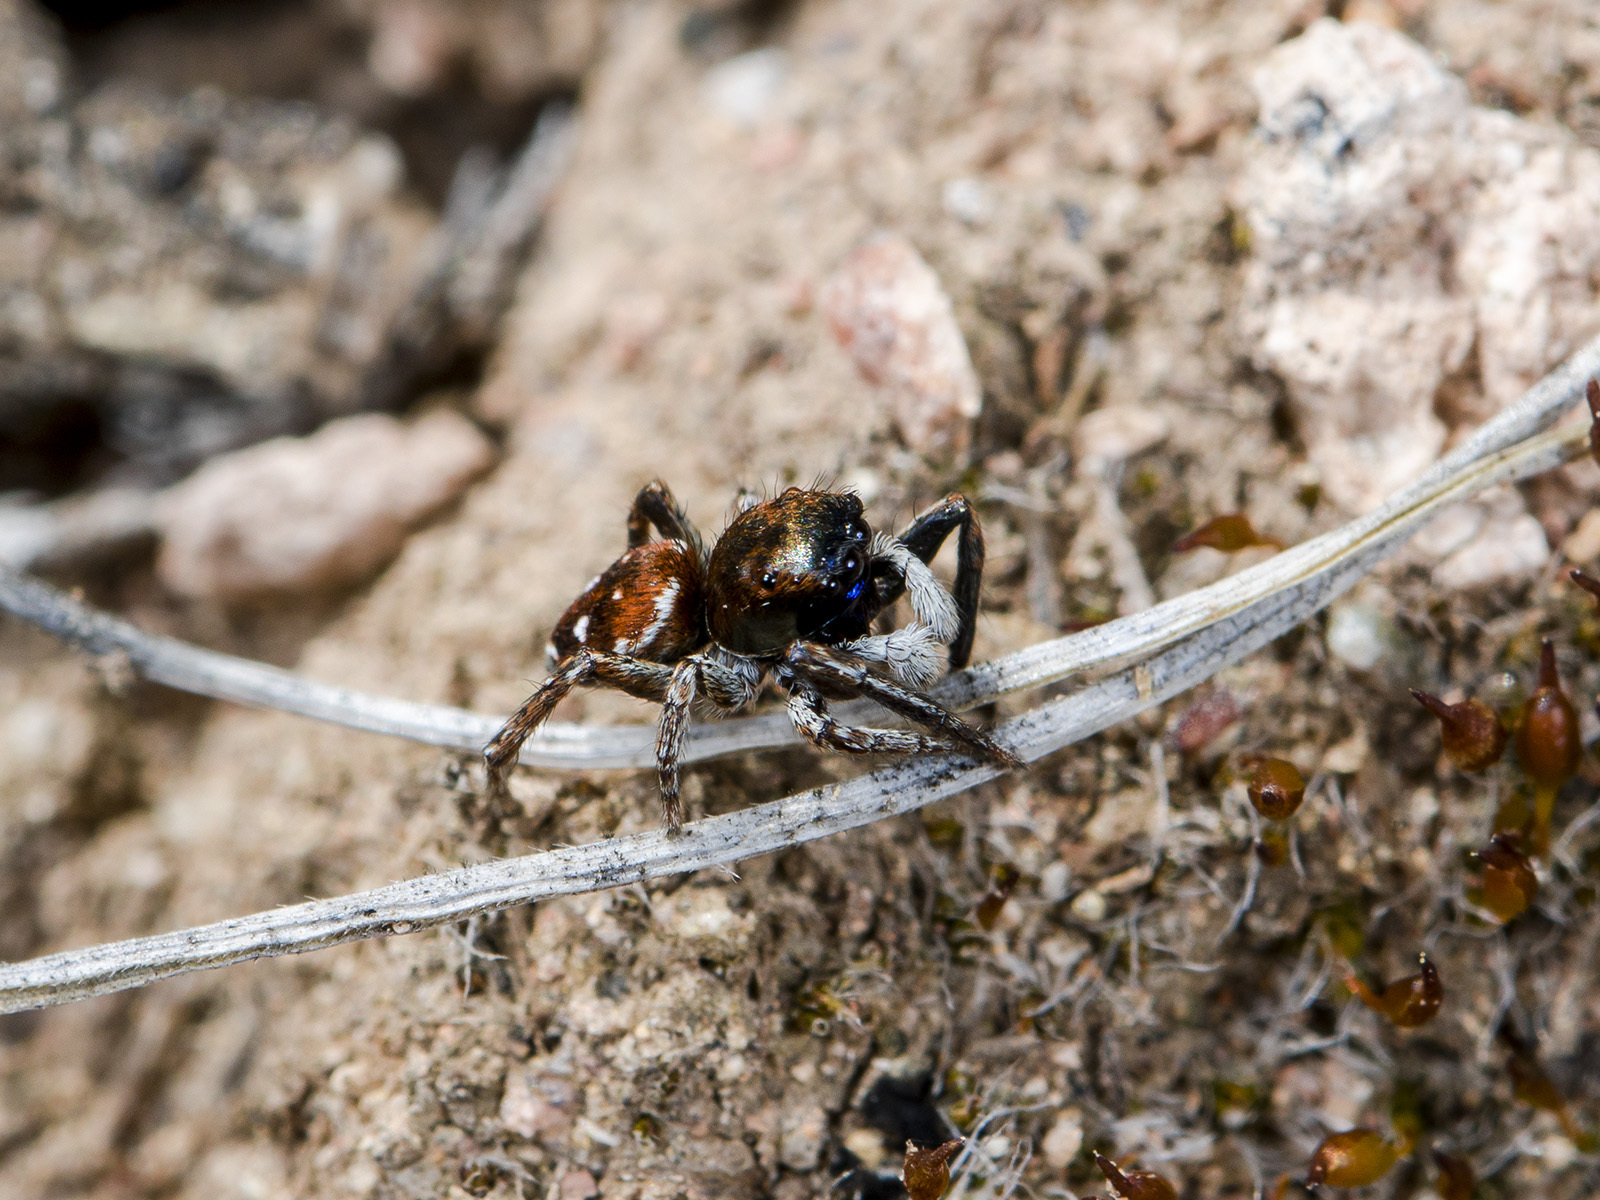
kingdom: Animalia
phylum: Arthropoda
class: Arachnida
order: Araneae
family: Salticidae
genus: Attulus
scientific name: Attulus mirandus
